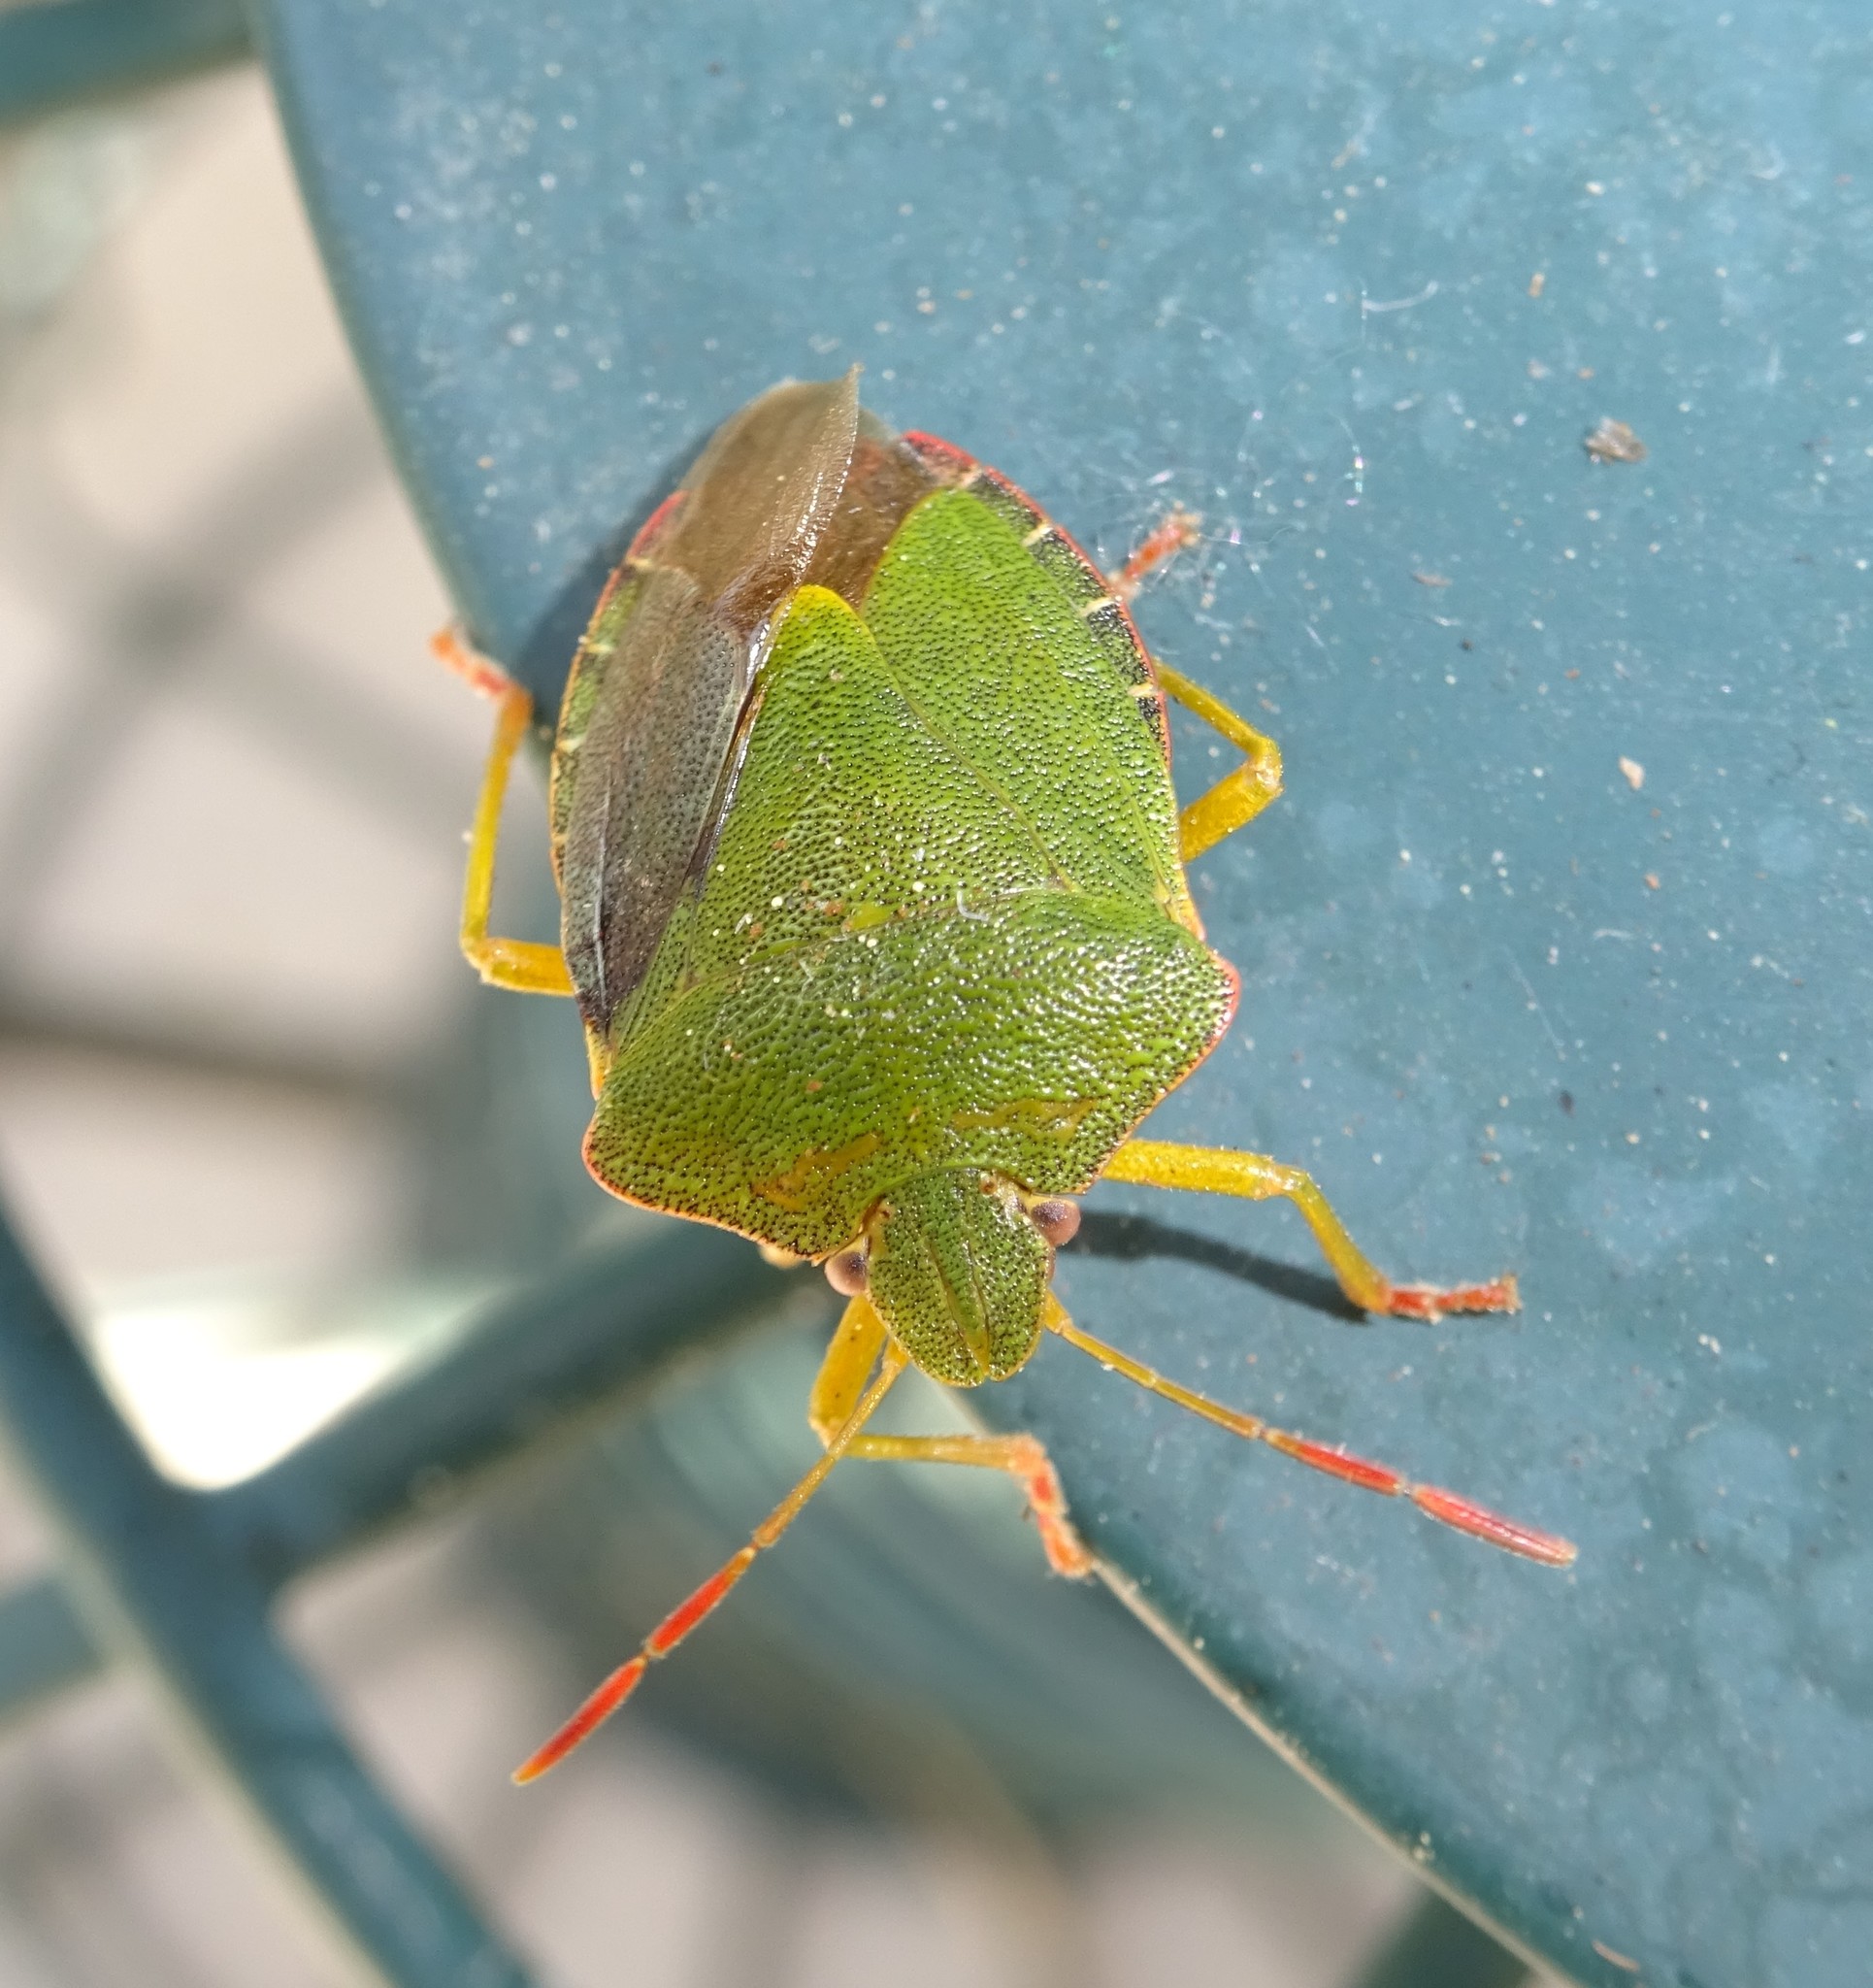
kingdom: Animalia
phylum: Arthropoda
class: Insecta
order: Hemiptera
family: Pentatomidae
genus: Palomena
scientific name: Palomena prasina
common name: Green shieldbug
